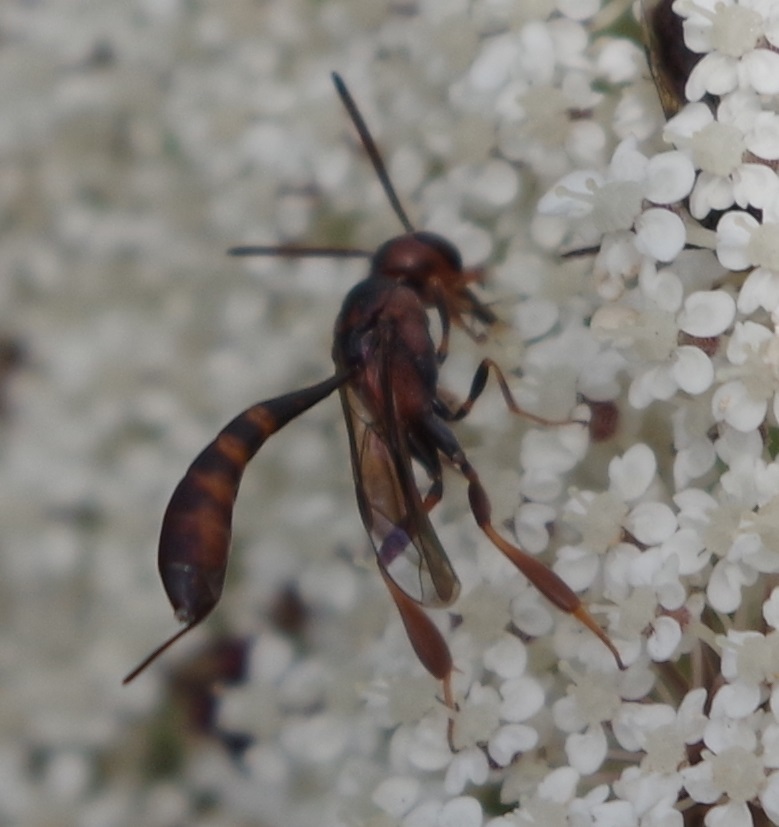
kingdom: Animalia
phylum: Arthropoda
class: Insecta
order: Hymenoptera
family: Gasteruptiidae
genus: Gasteruption
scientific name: Gasteruption hastator
